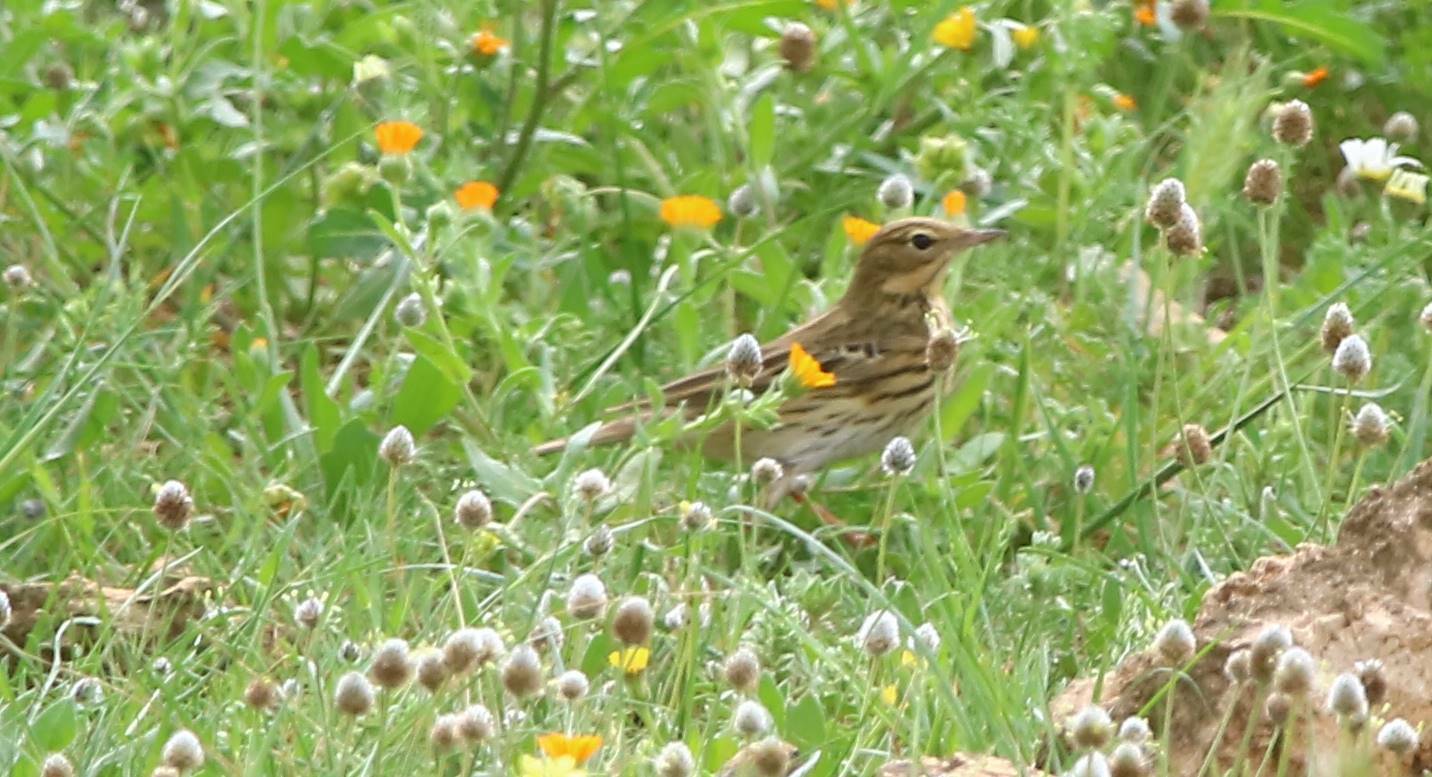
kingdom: Animalia
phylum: Chordata
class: Aves
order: Passeriformes
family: Motacillidae
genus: Anthus
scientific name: Anthus pratensis
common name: Meadow pipit
